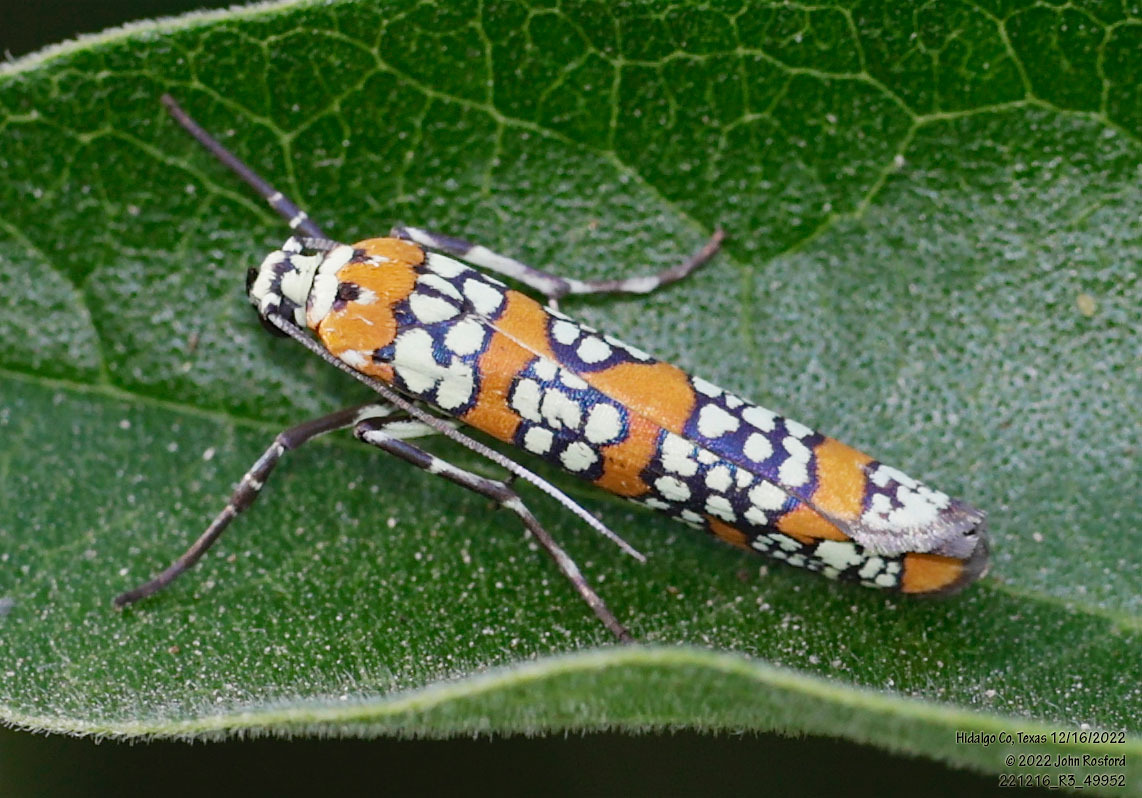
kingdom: Animalia
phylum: Arthropoda
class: Insecta
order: Lepidoptera
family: Attevidae
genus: Atteva
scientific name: Atteva punctella
